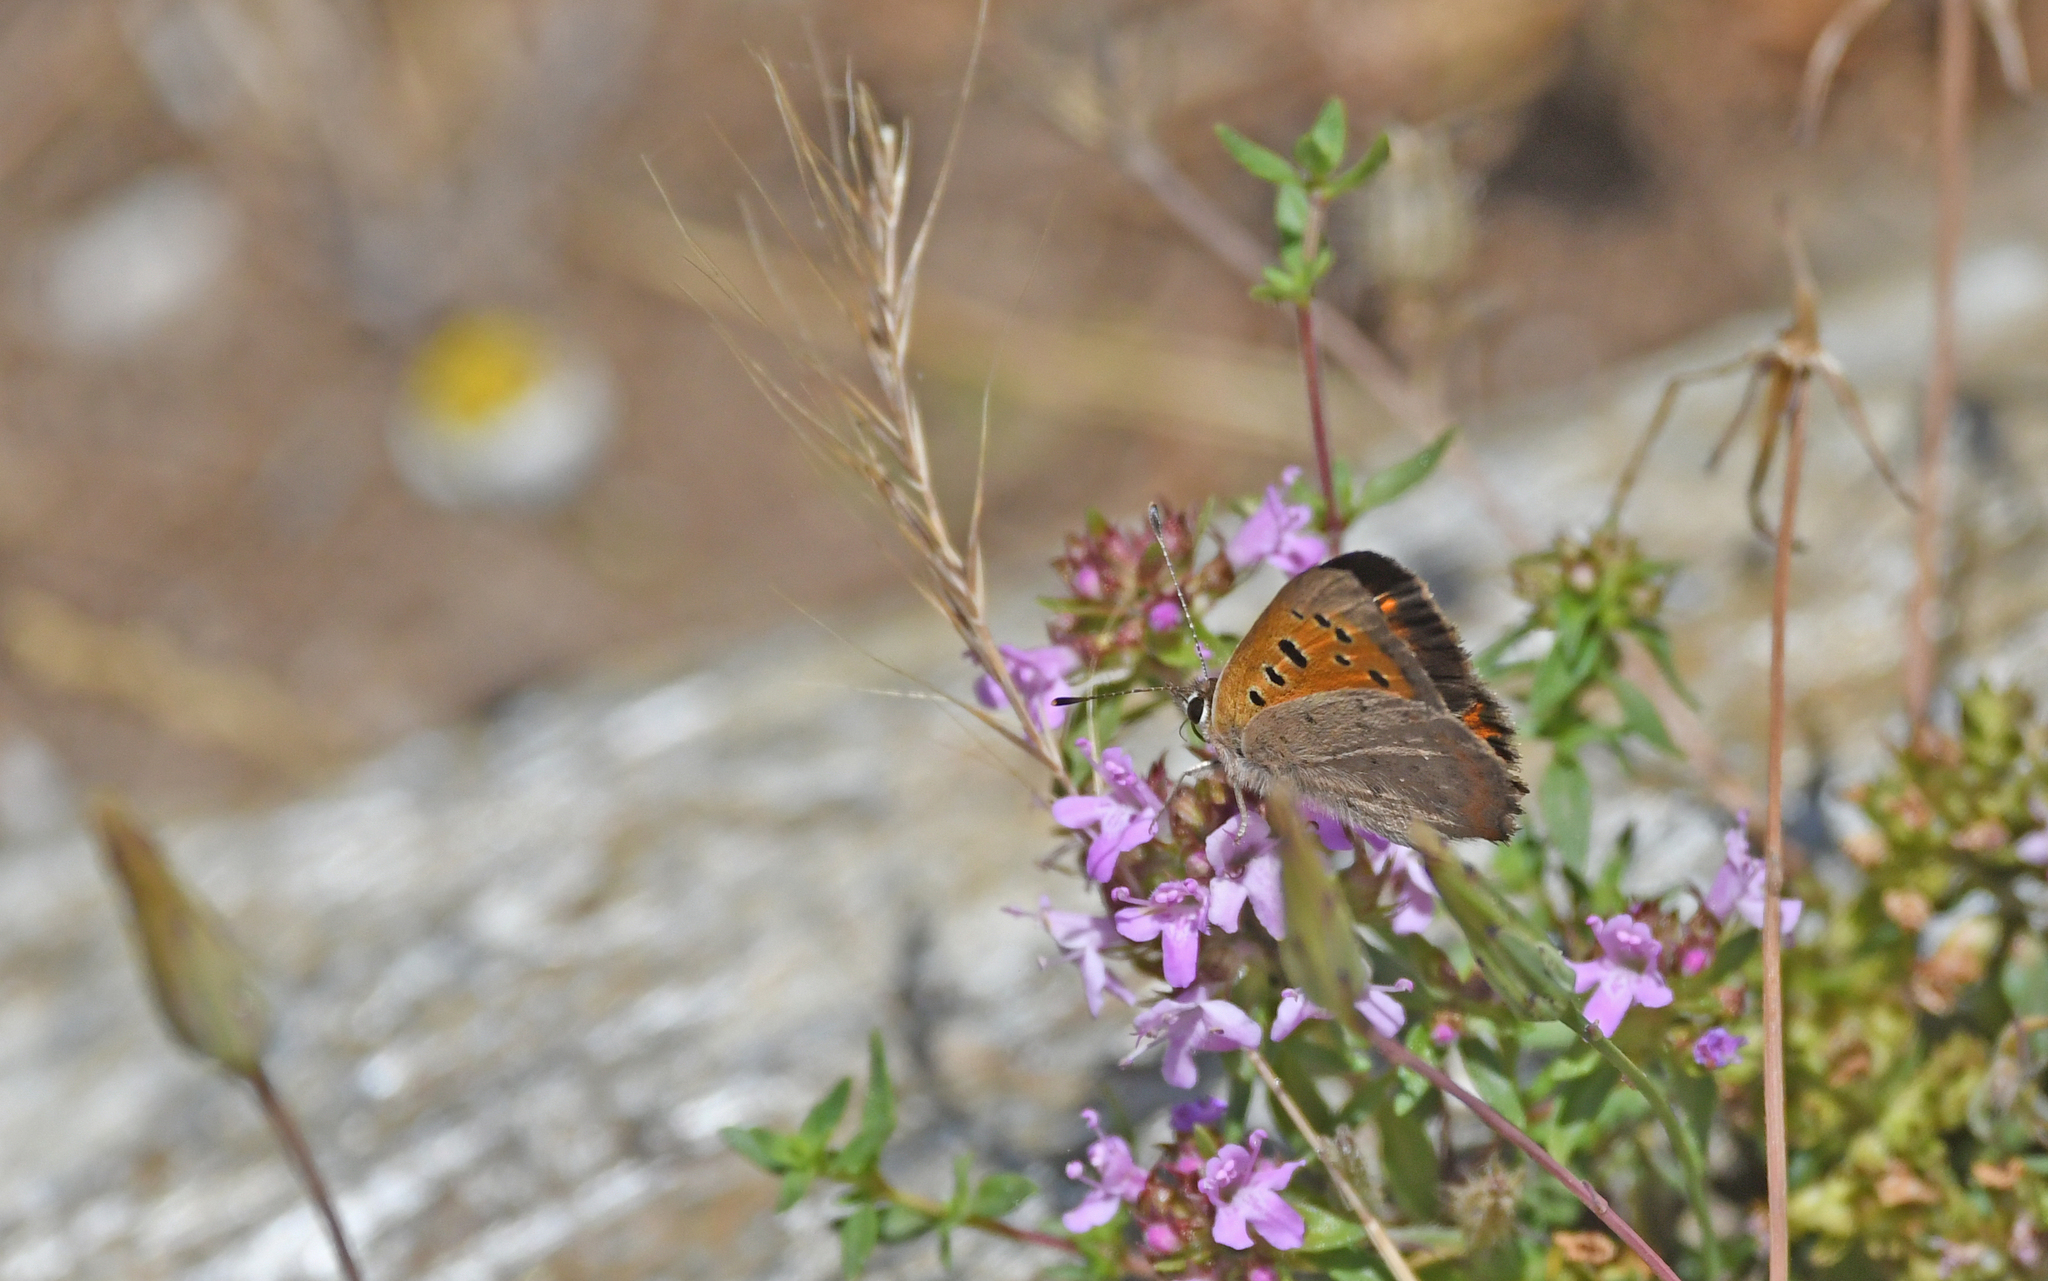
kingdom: Animalia
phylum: Arthropoda
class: Insecta
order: Lepidoptera
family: Lycaenidae
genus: Lycaena
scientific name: Lycaena phlaeas
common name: Small copper
